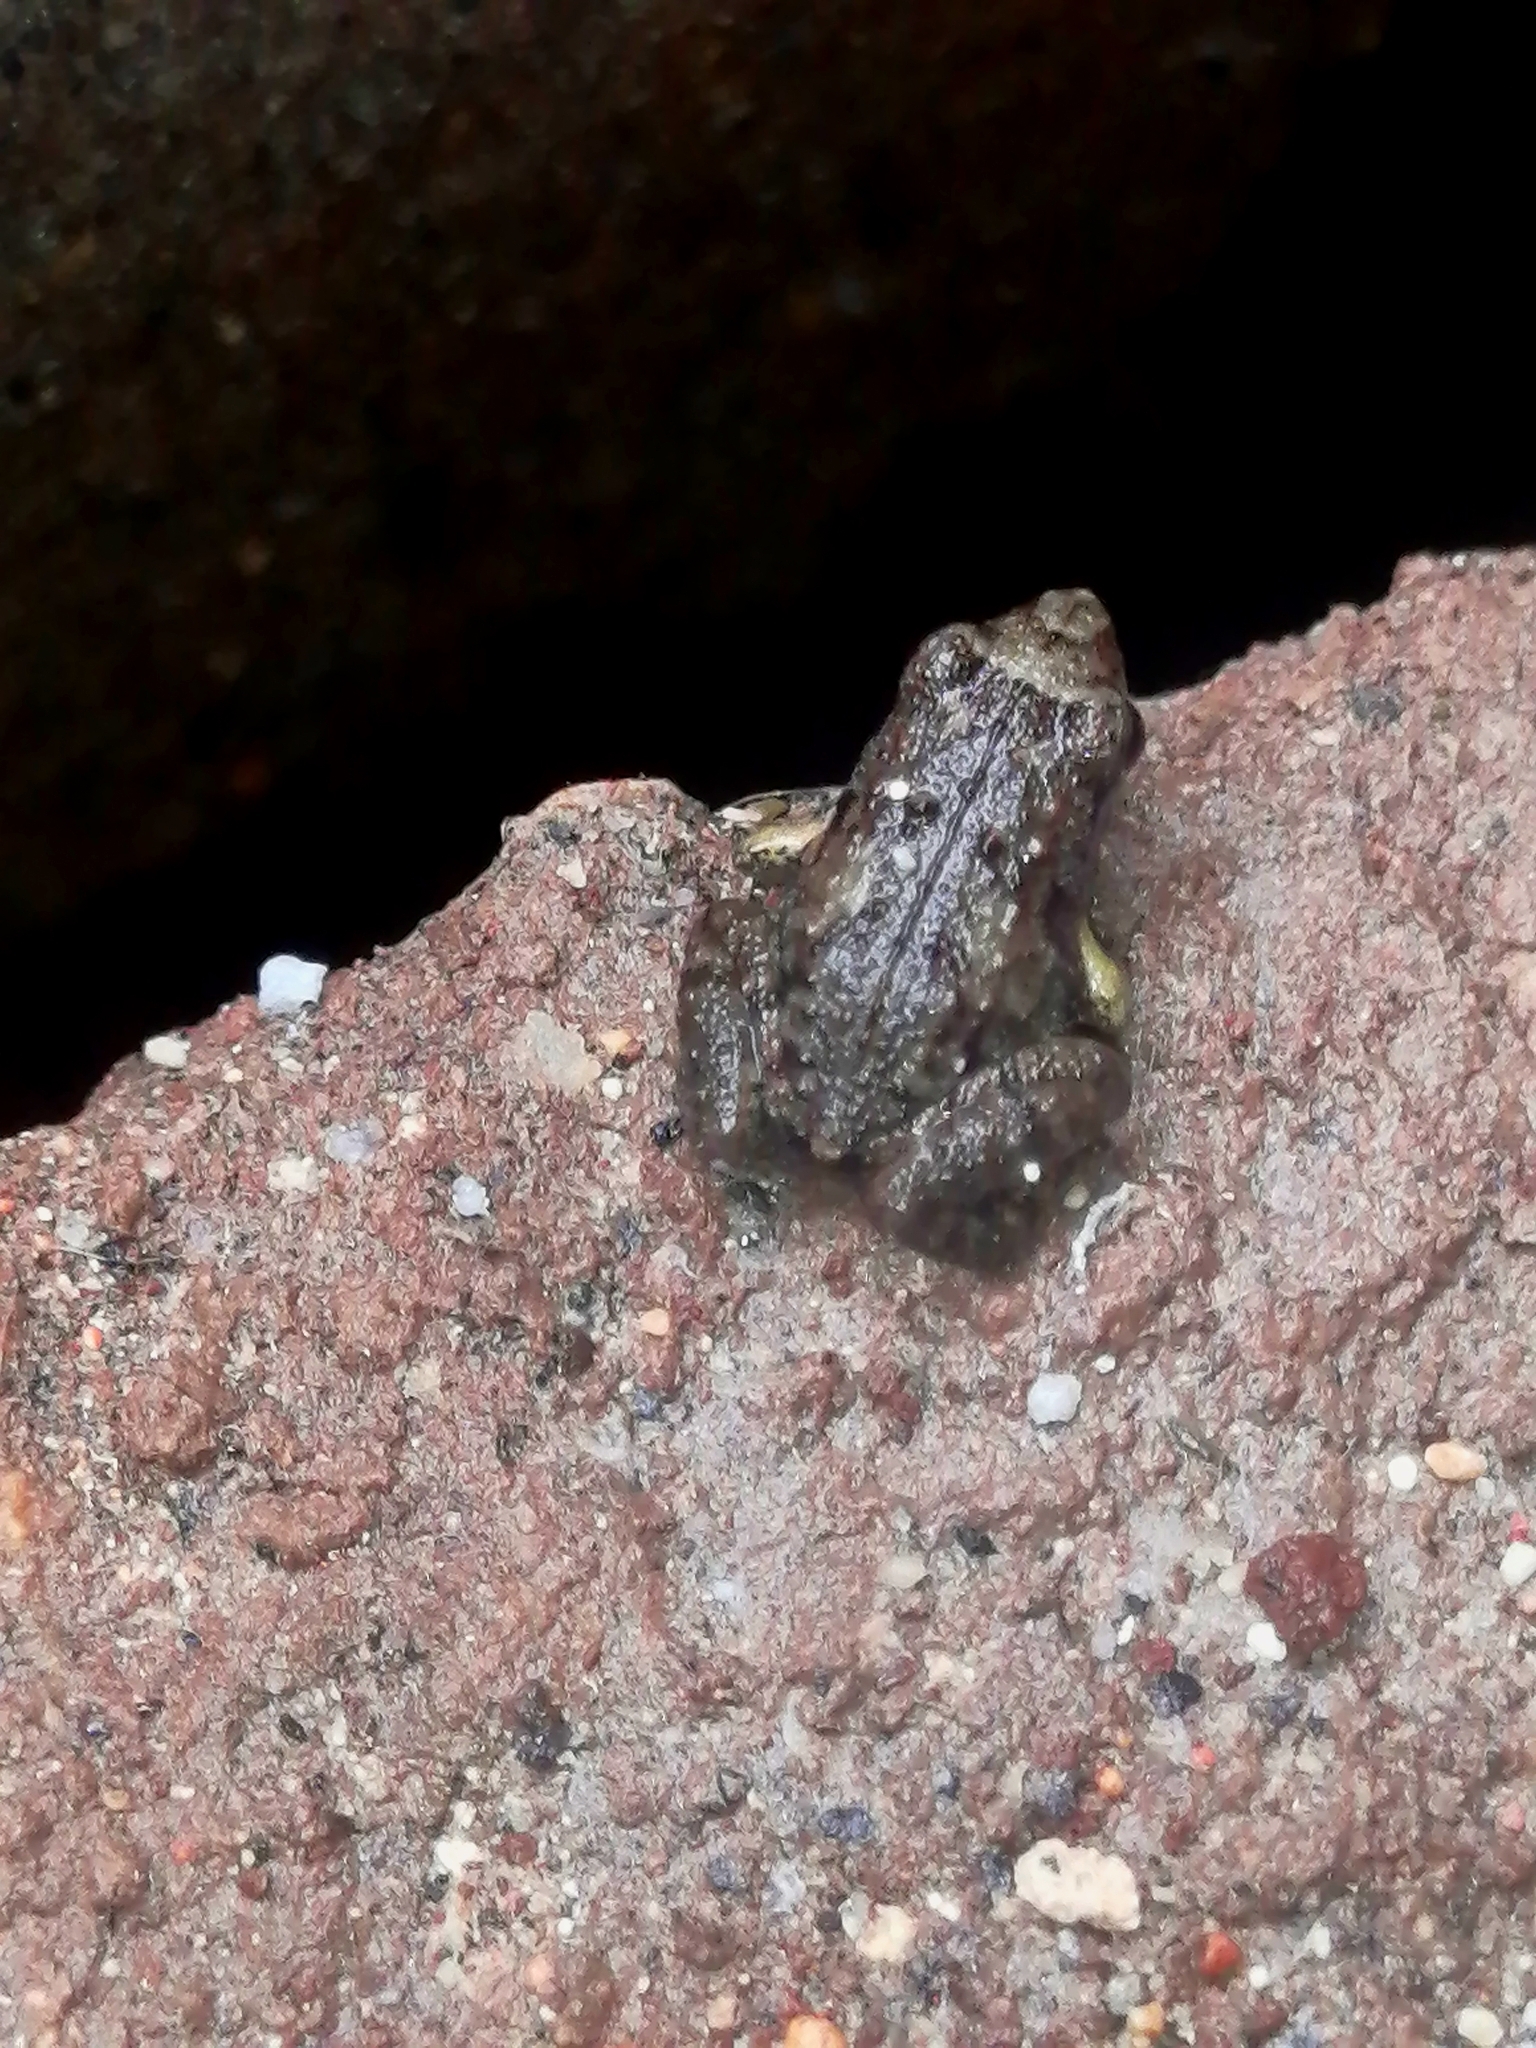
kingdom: Animalia
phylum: Chordata
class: Amphibia
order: Anura
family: Eleutherodactylidae
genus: Eleutherodactylus
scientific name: Eleutherodactylus planirostris
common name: Greenhouse frog
